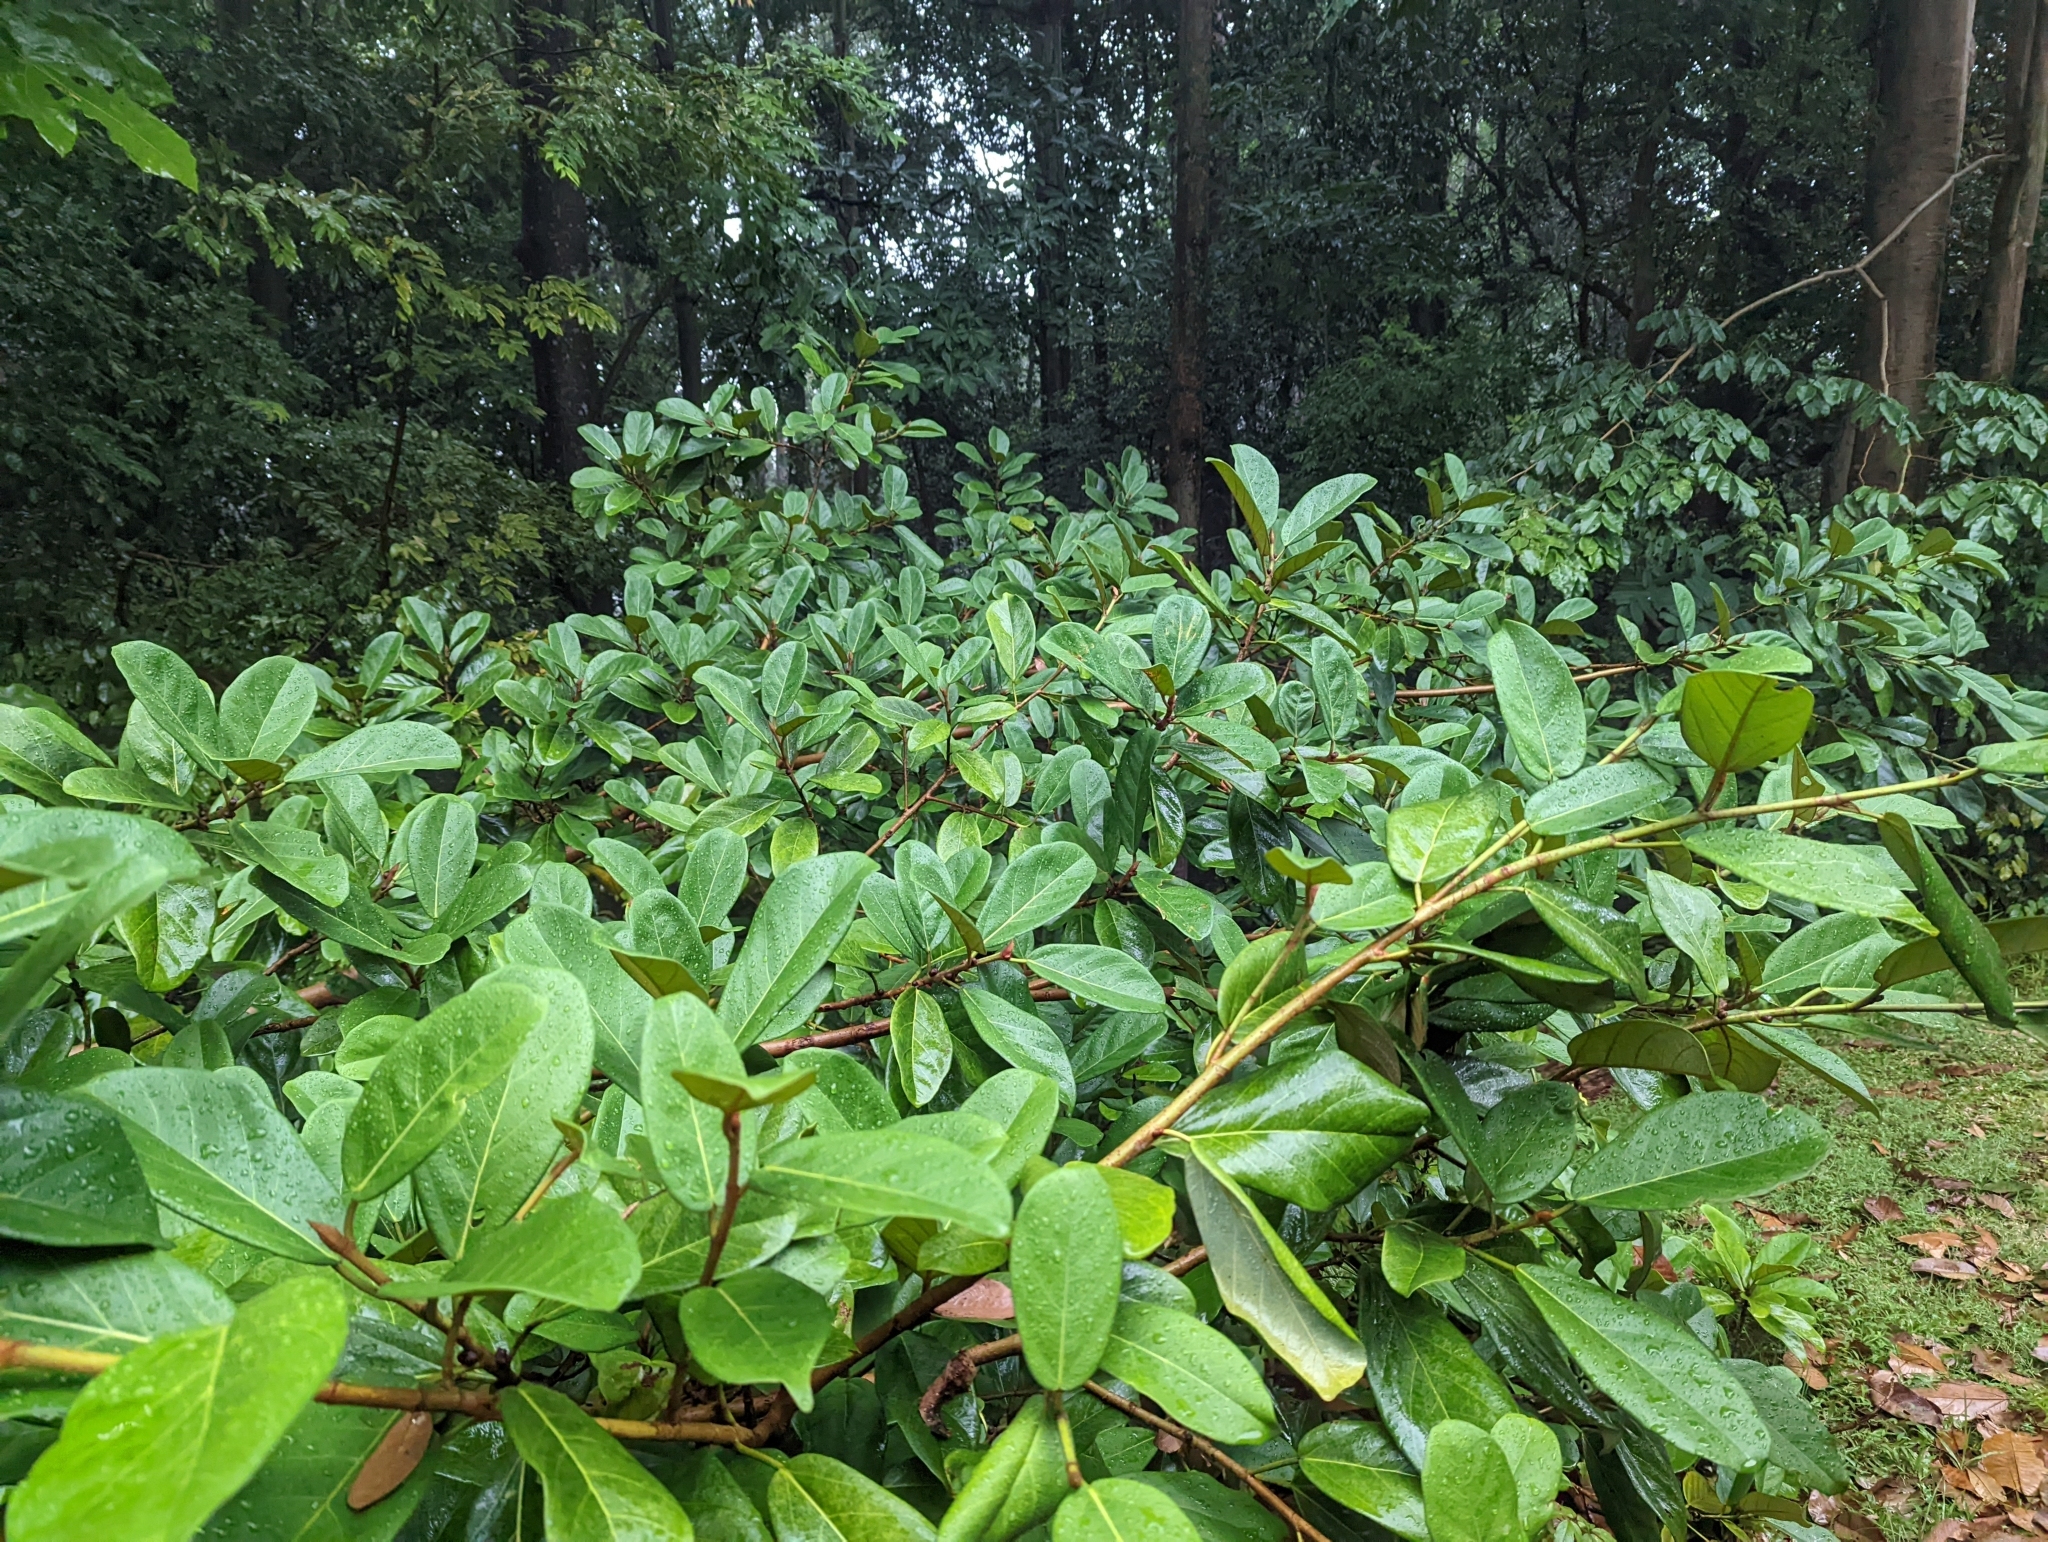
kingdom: Plantae
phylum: Tracheophyta
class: Magnoliopsida
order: Rosales
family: Moraceae
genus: Ficus
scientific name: Ficus consociata
